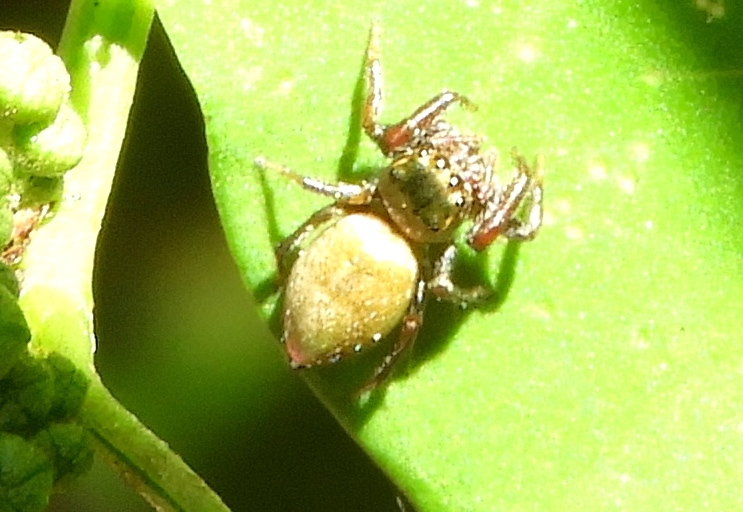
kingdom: Animalia
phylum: Arthropoda
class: Arachnida
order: Araneae
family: Salticidae
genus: Messua
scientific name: Messua limbata
